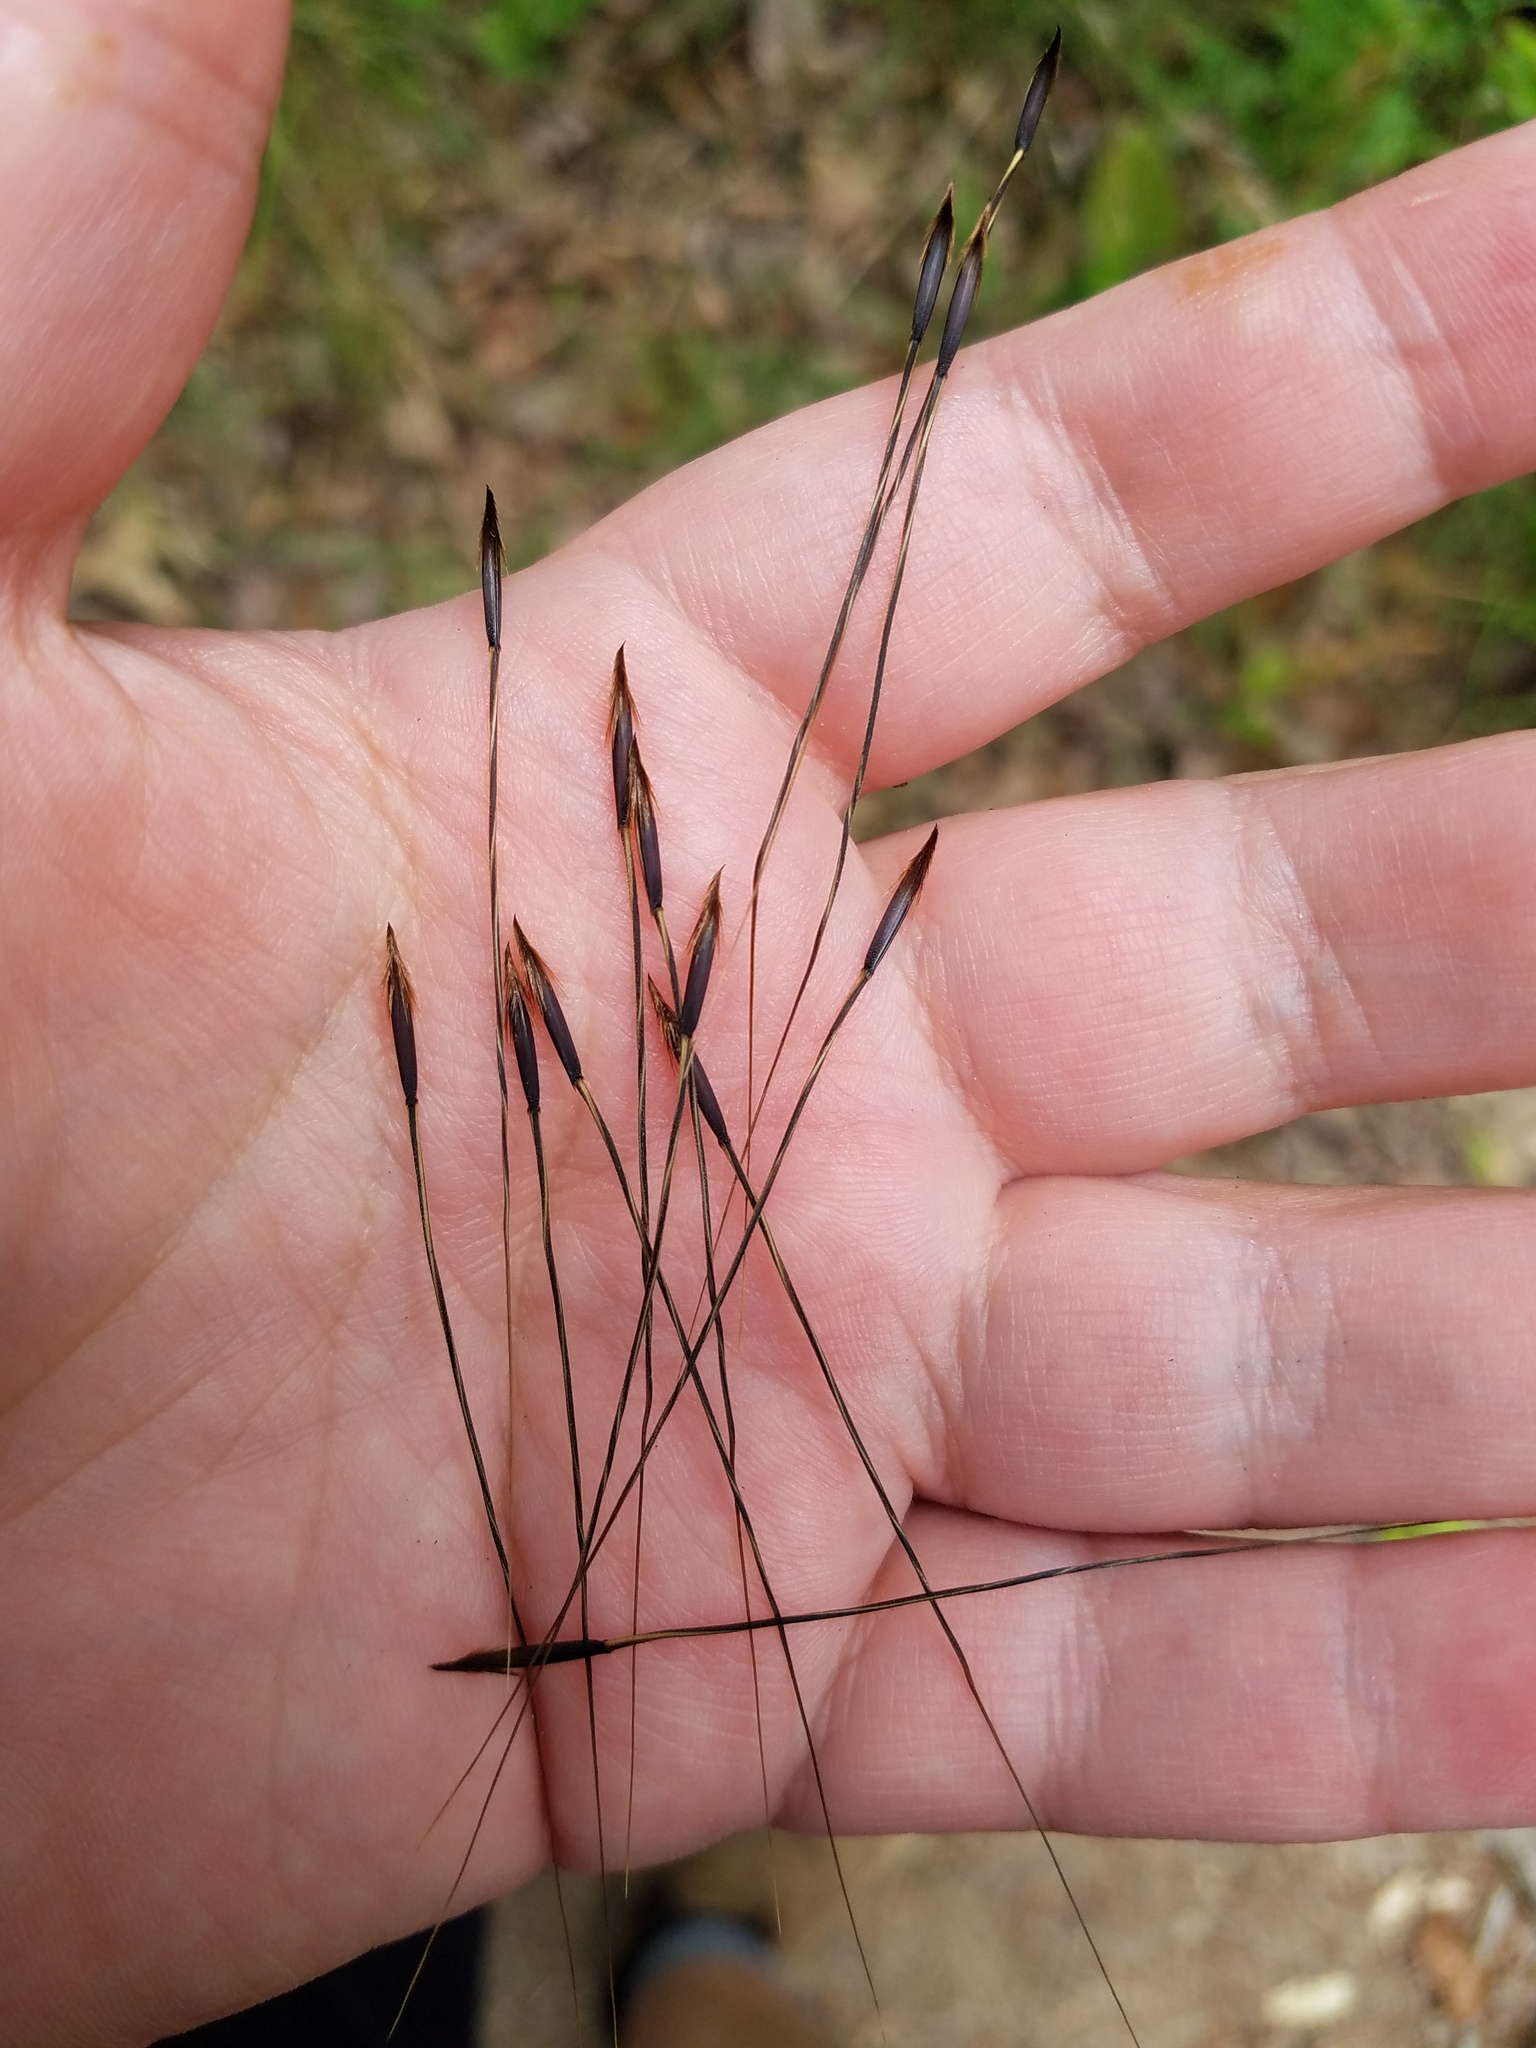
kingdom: Plantae
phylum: Tracheophyta
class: Liliopsida
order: Poales
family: Poaceae
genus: Piptochaetium
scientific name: Piptochaetium avenaceum
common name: Black bunchgrass
